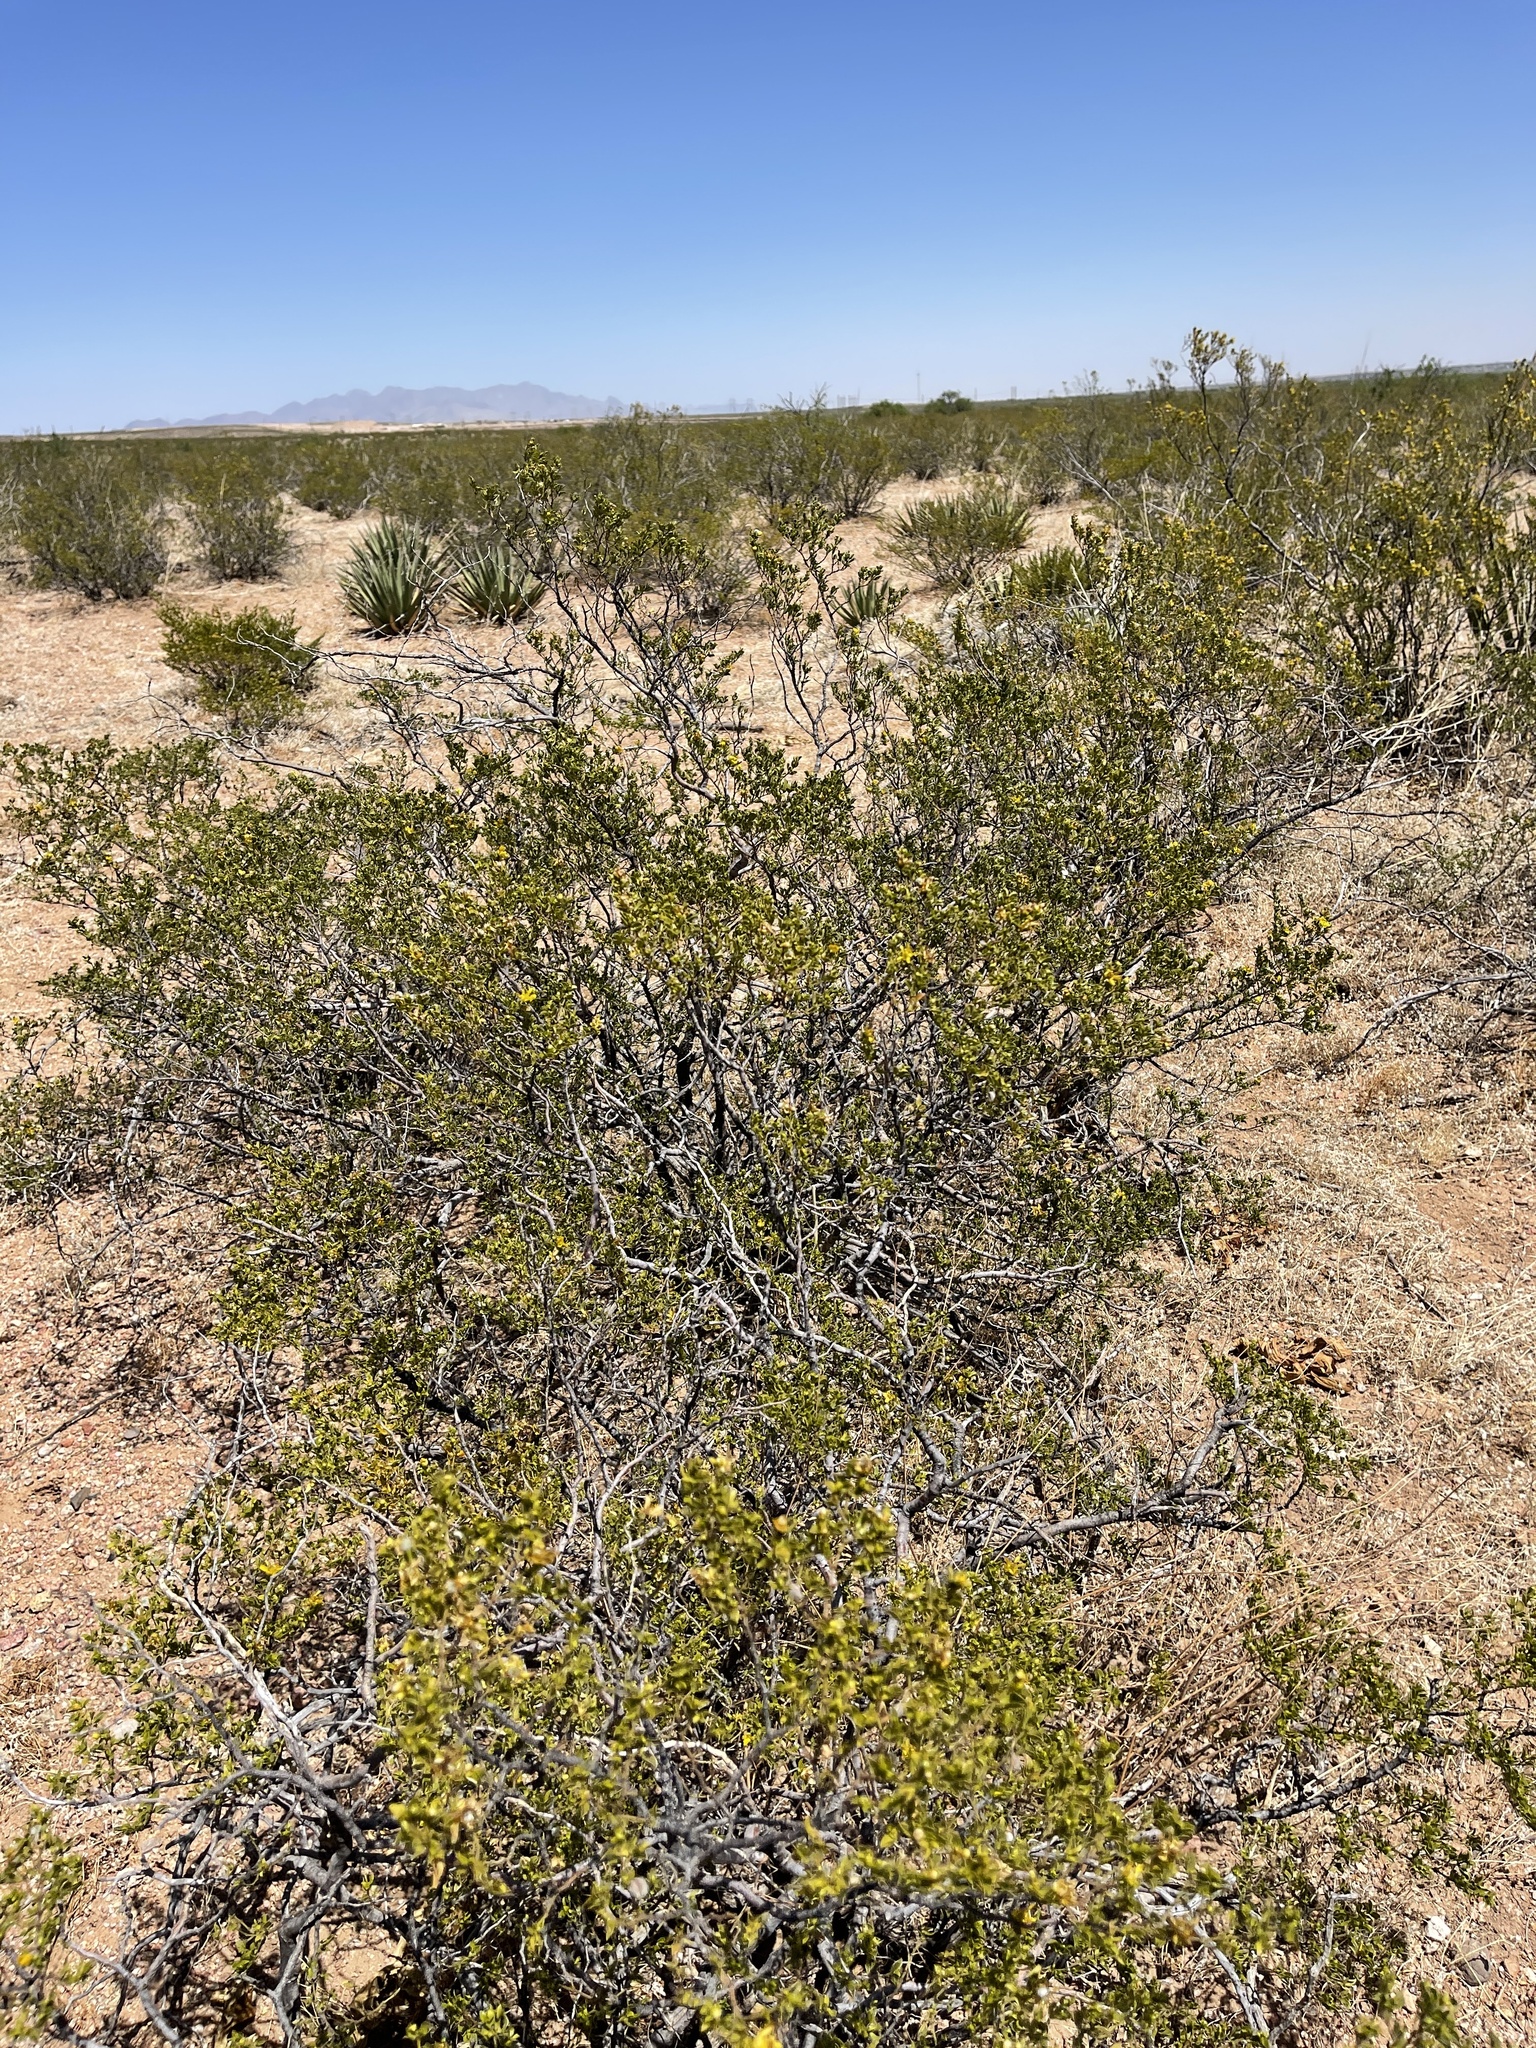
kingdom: Plantae
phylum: Tracheophyta
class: Magnoliopsida
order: Zygophyllales
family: Zygophyllaceae
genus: Larrea
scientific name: Larrea tridentata
